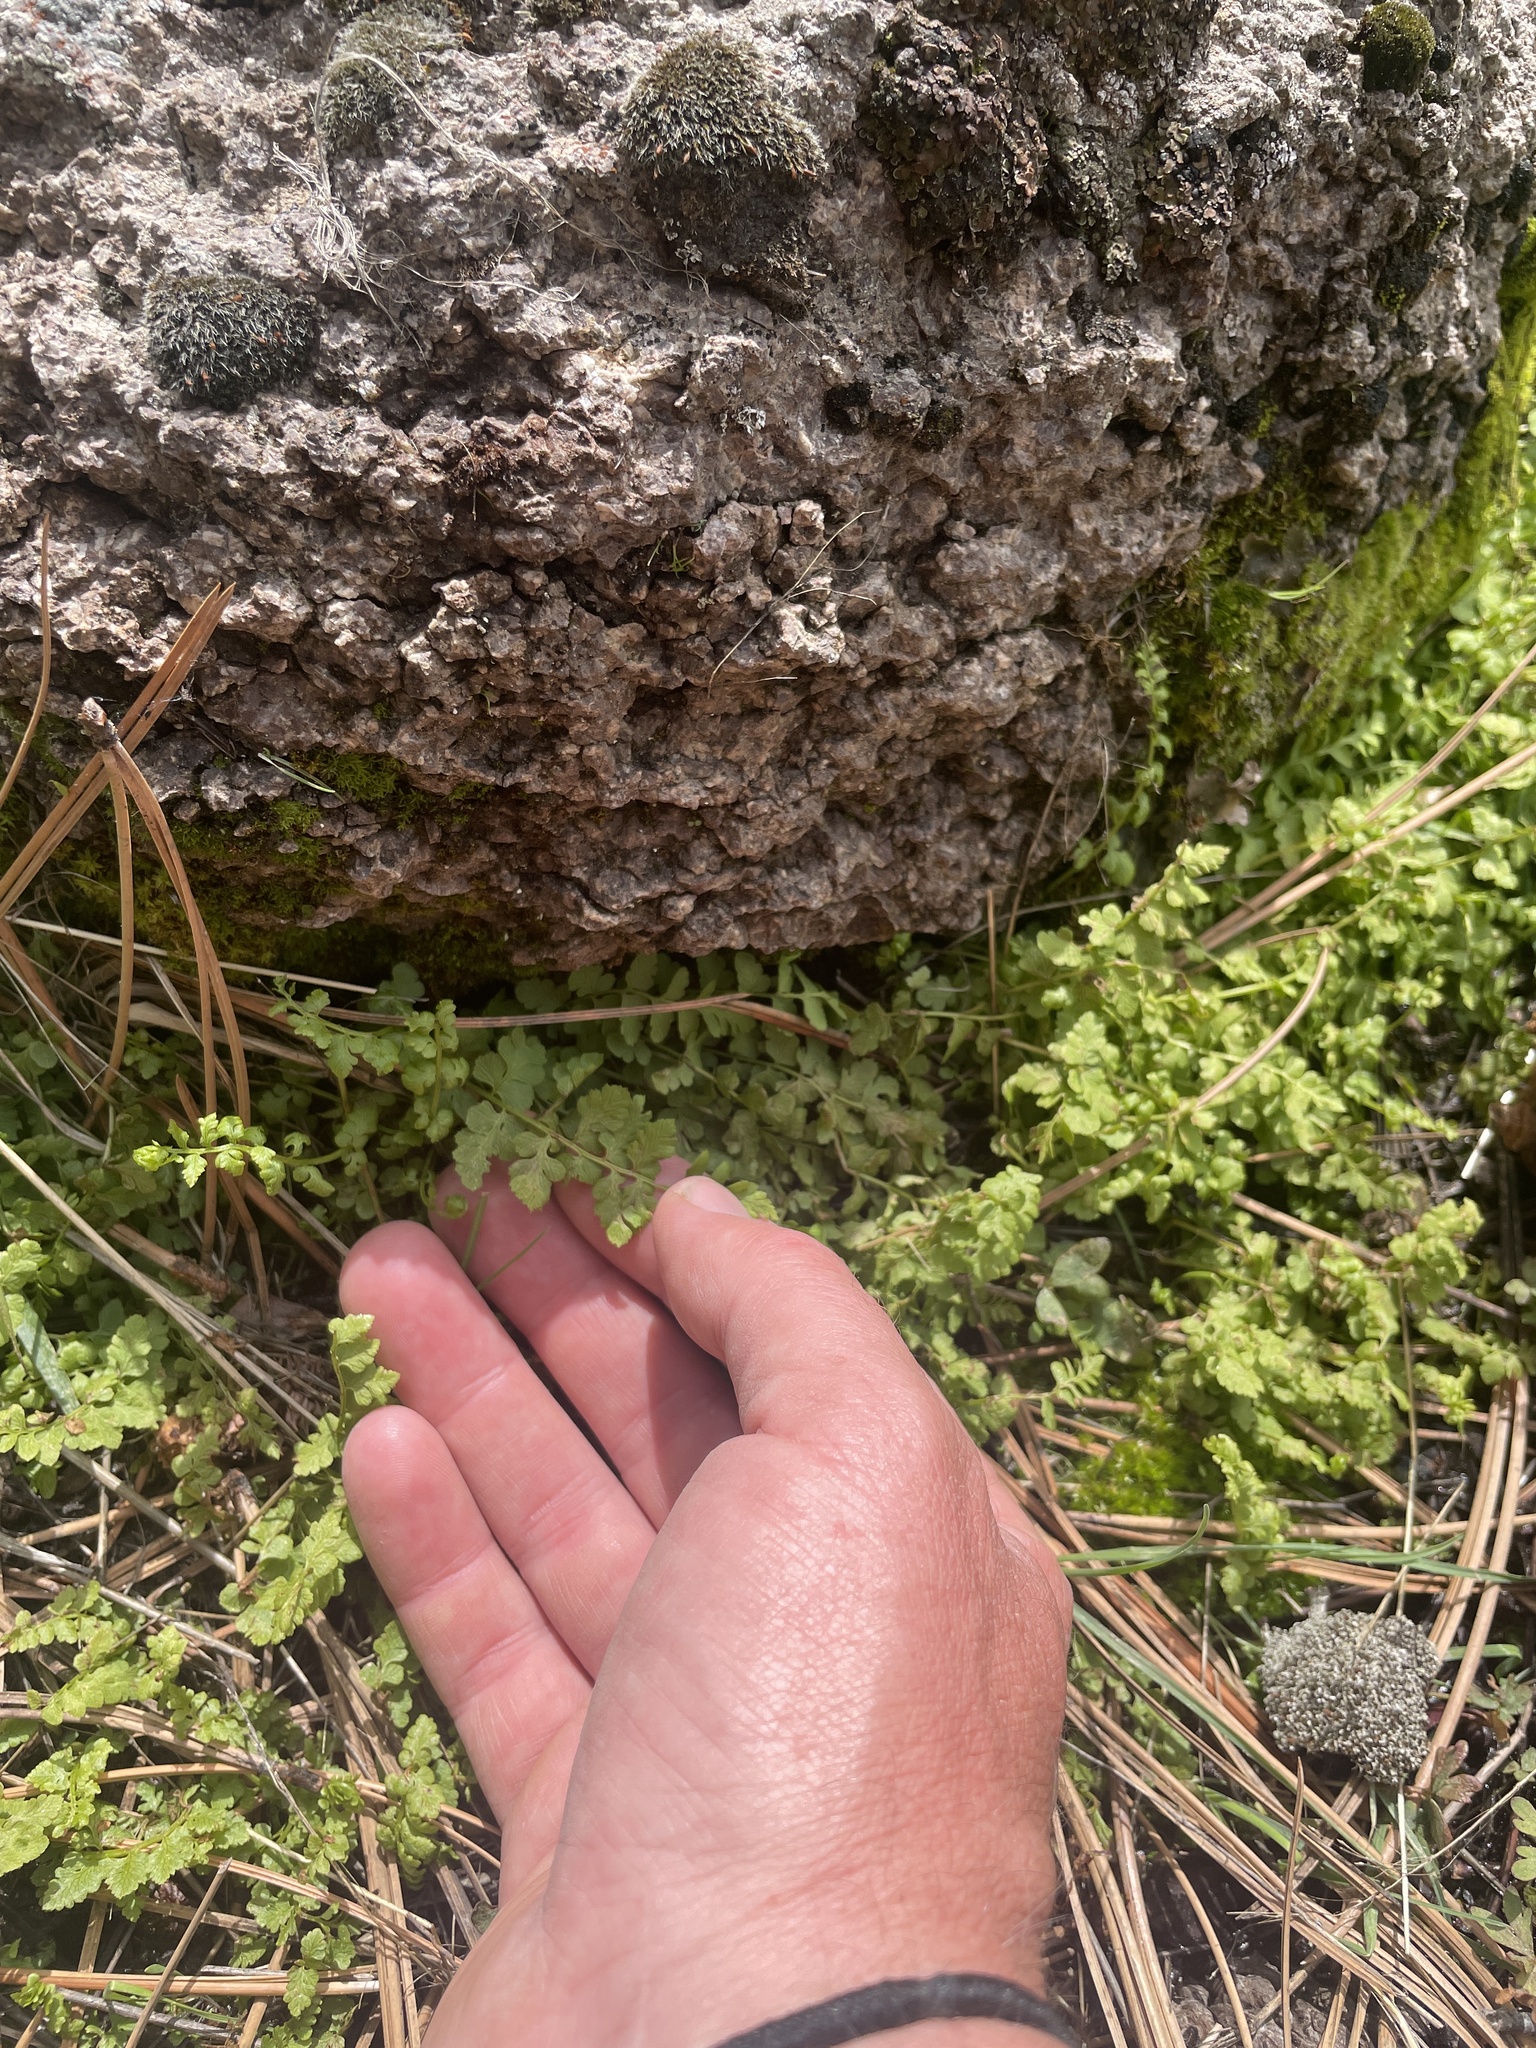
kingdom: Plantae
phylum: Tracheophyta
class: Polypodiopsida
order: Polypodiales
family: Cystopteridaceae
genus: Cystopteris
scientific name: Cystopteris fragilis
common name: Brittle bladder fern
